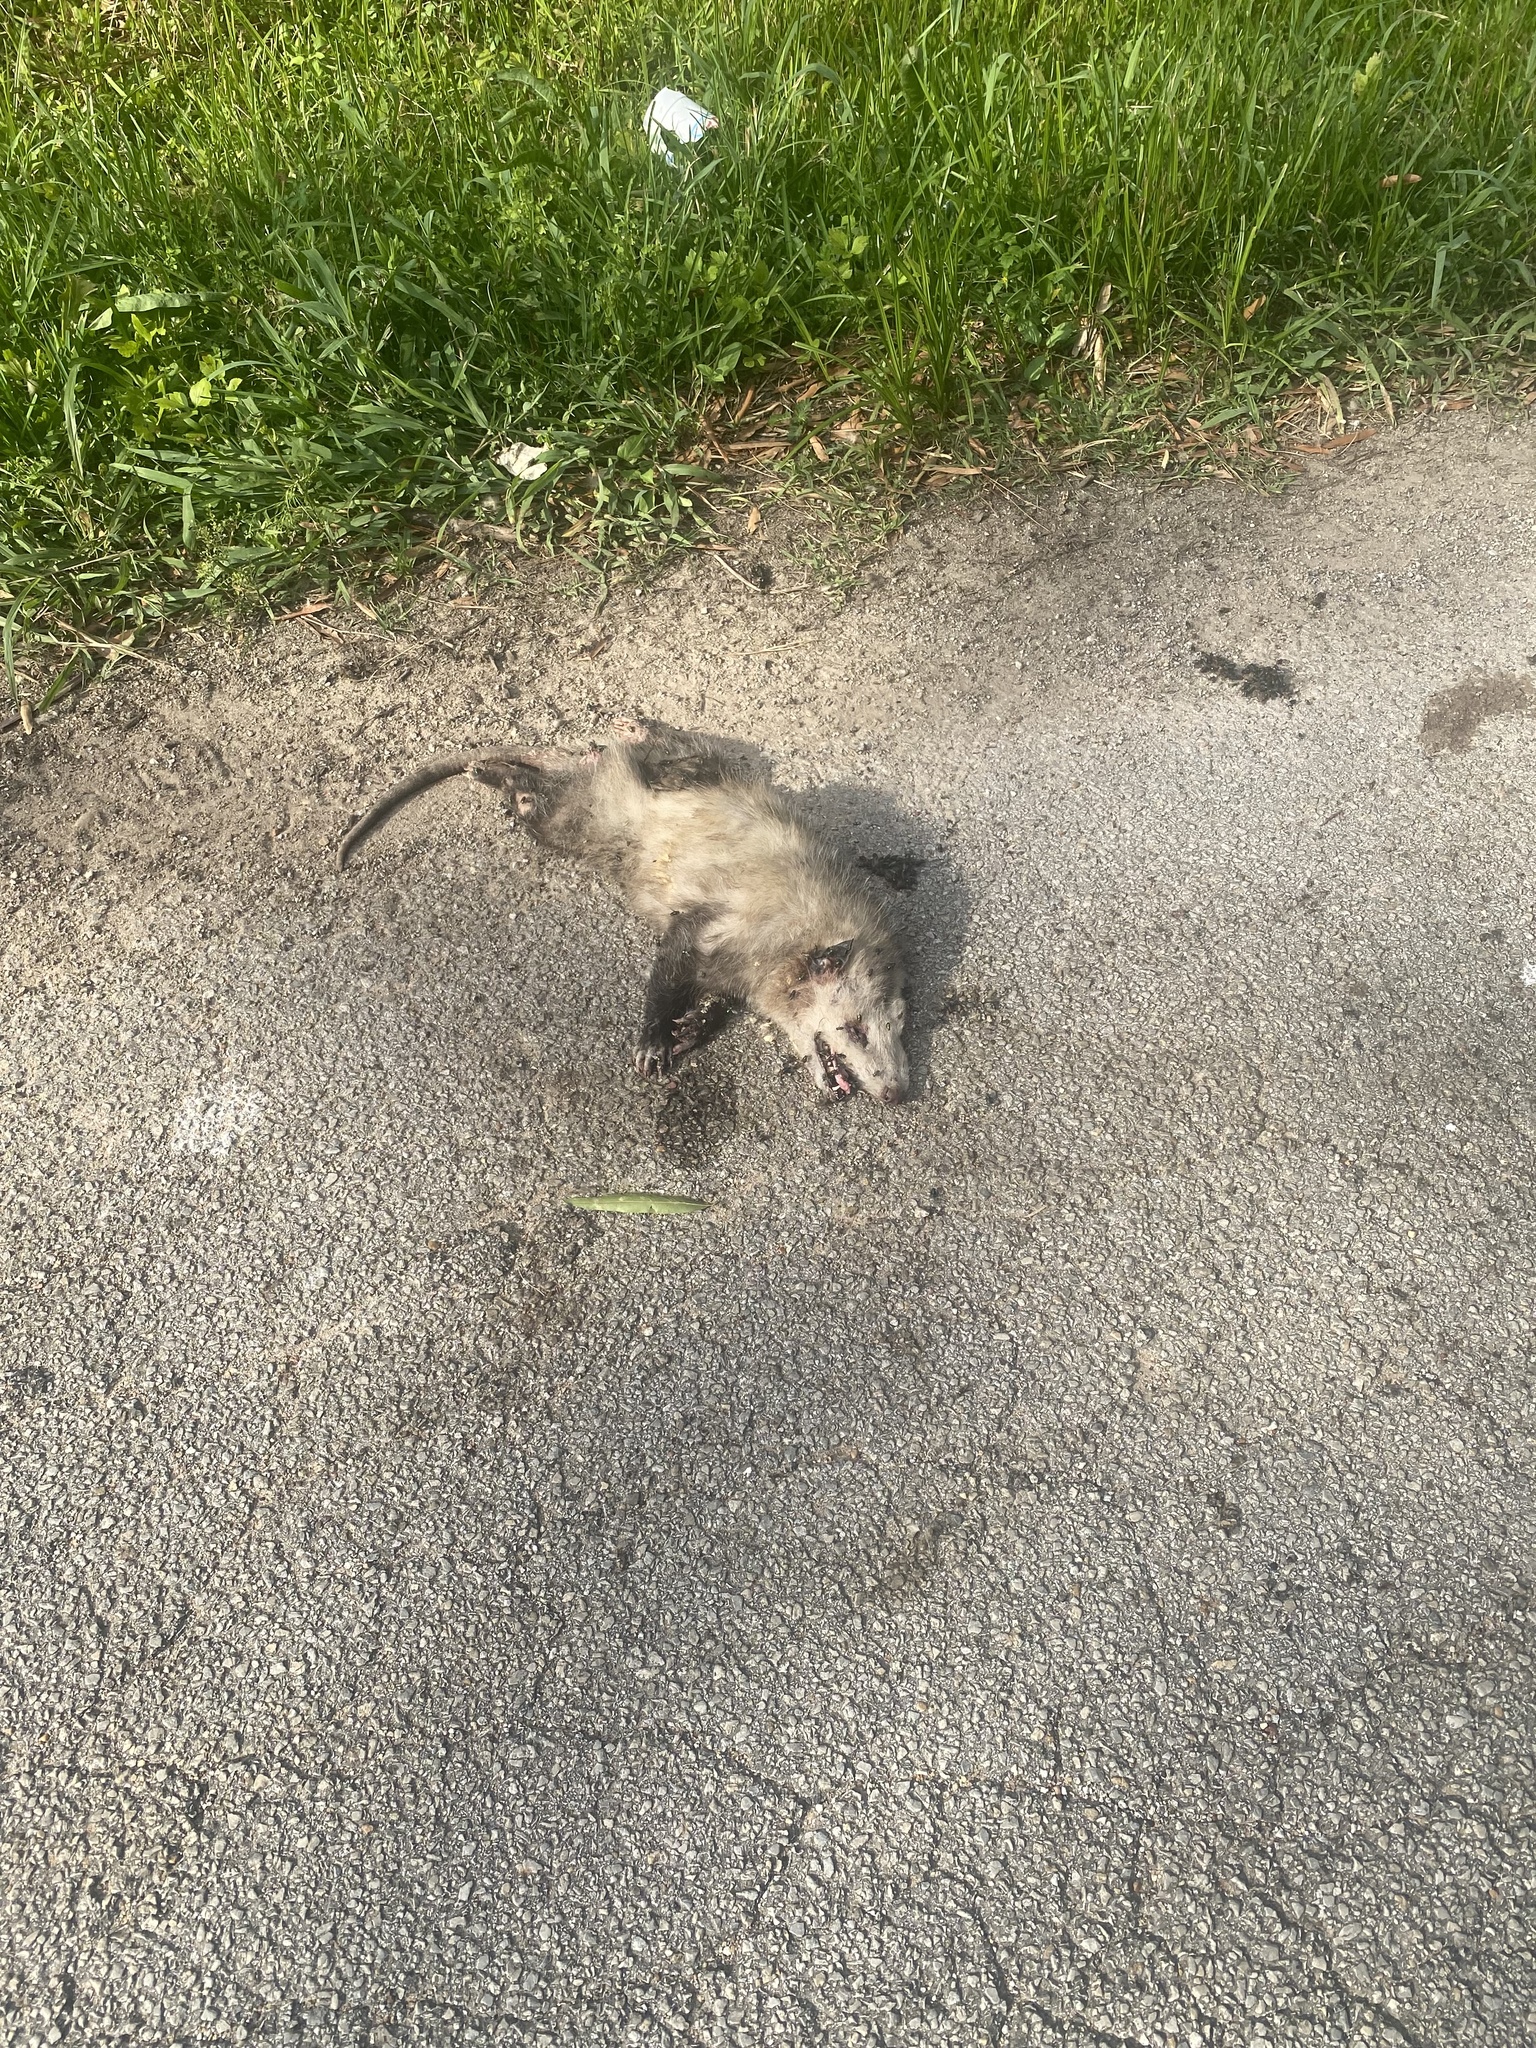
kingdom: Animalia
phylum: Chordata
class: Mammalia
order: Didelphimorphia
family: Didelphidae
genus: Didelphis
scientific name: Didelphis virginiana
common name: Virginia opossum
